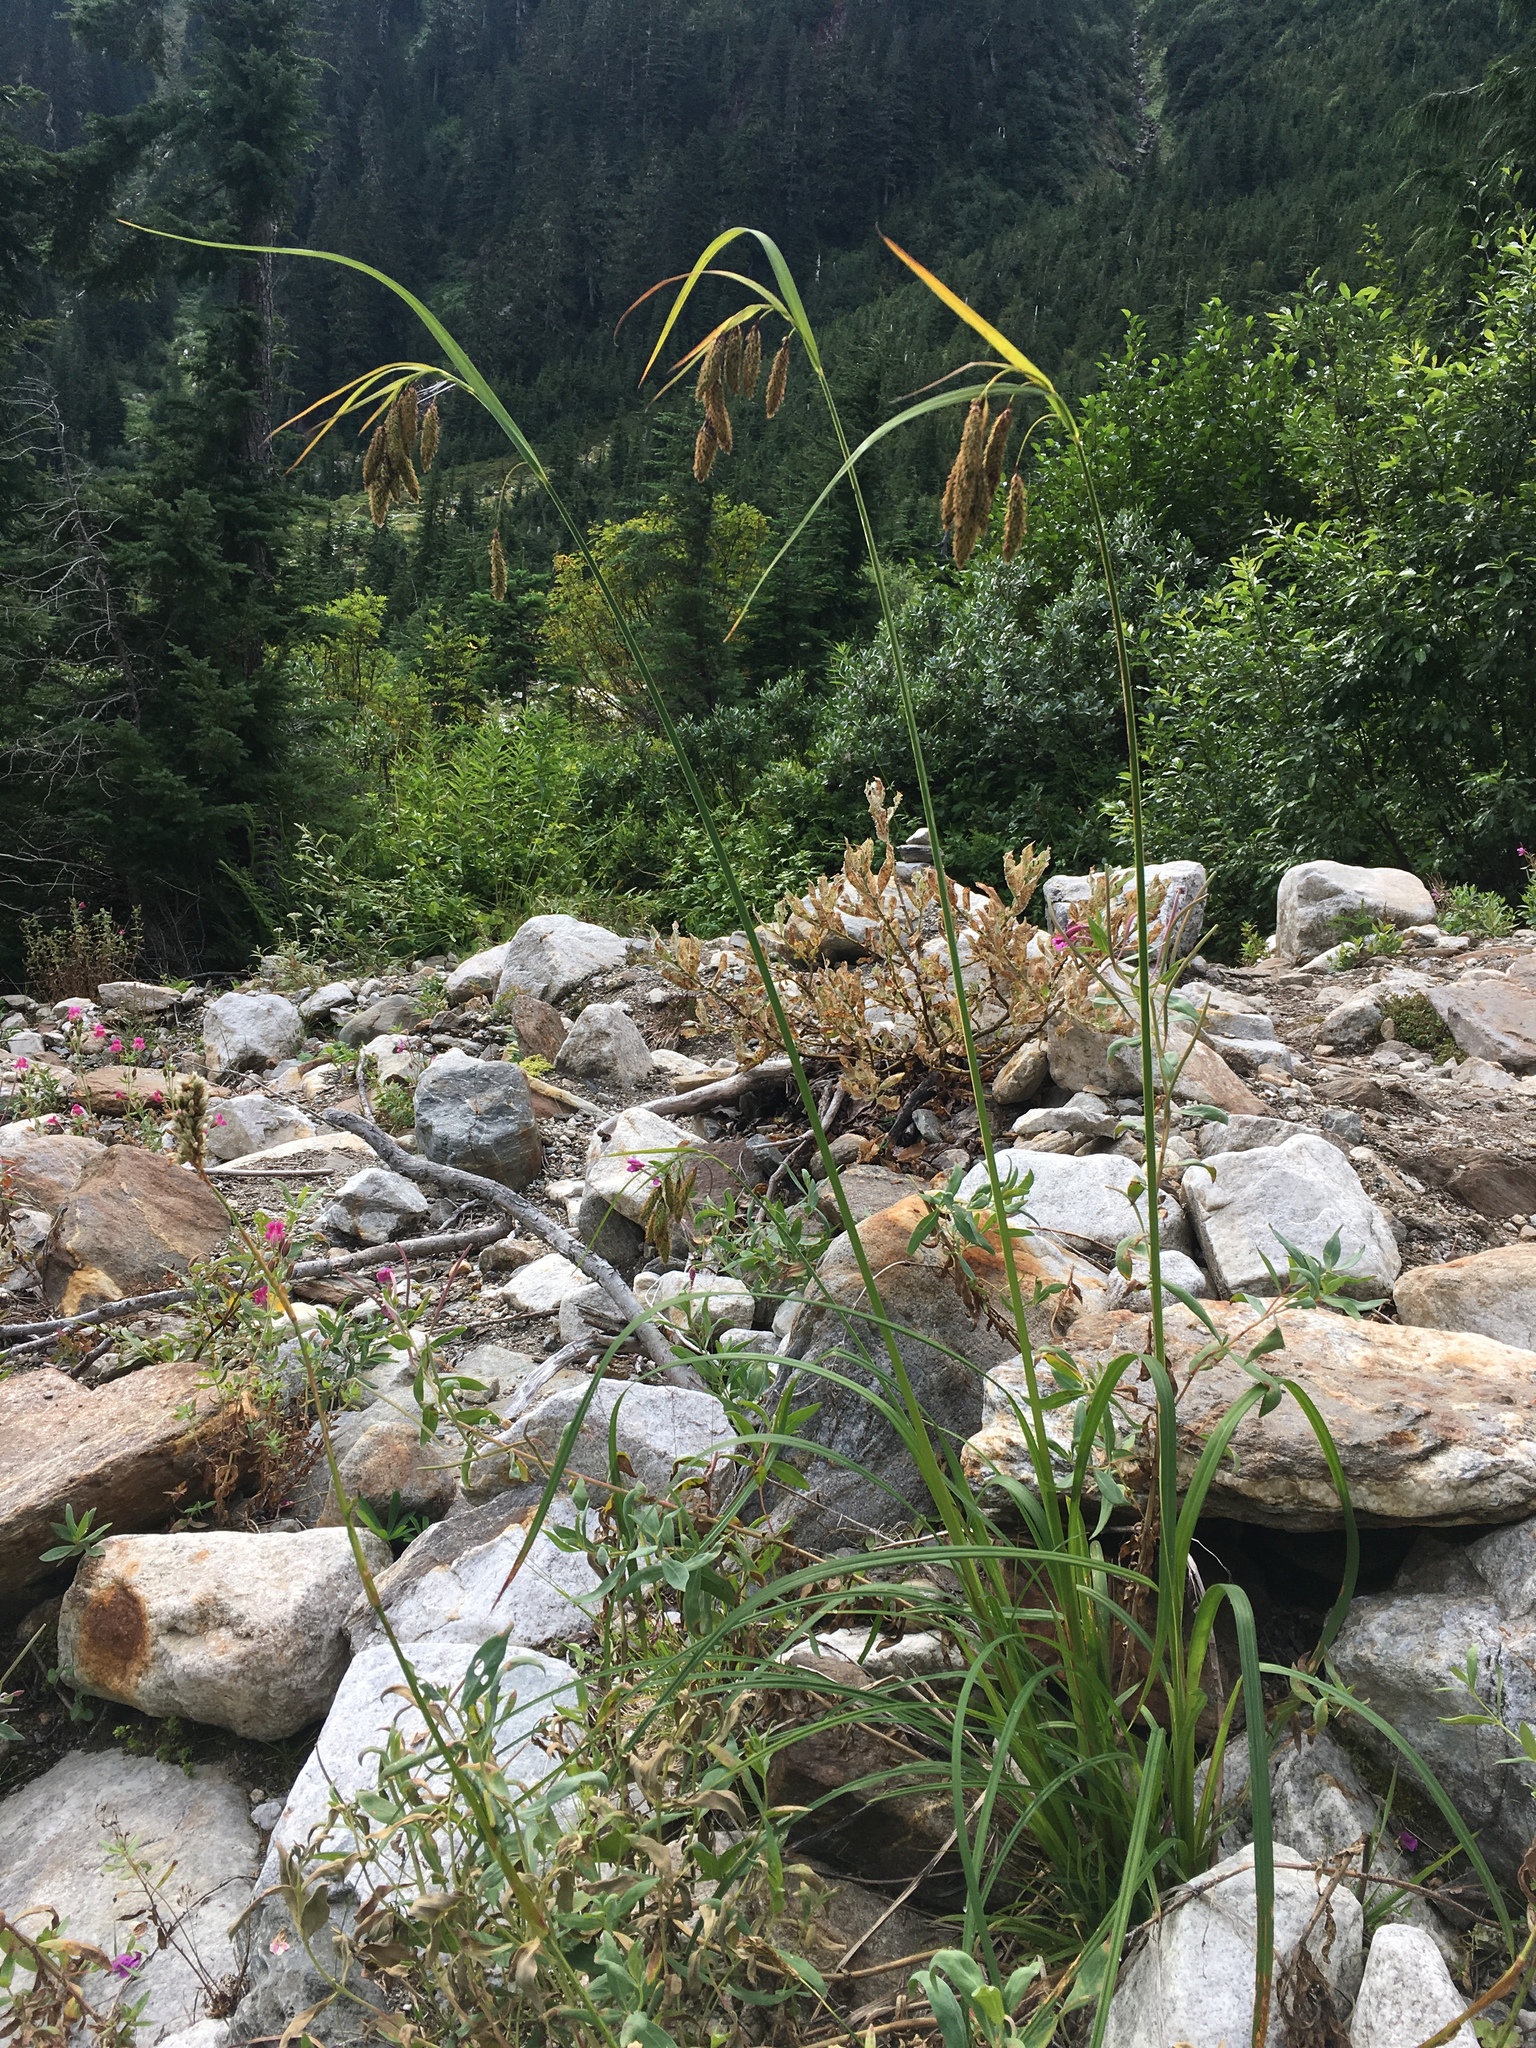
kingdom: Plantae
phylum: Tracheophyta
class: Liliopsida
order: Poales
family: Cyperaceae
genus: Carex
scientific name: Carex mertensii
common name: Mertens' sedge
